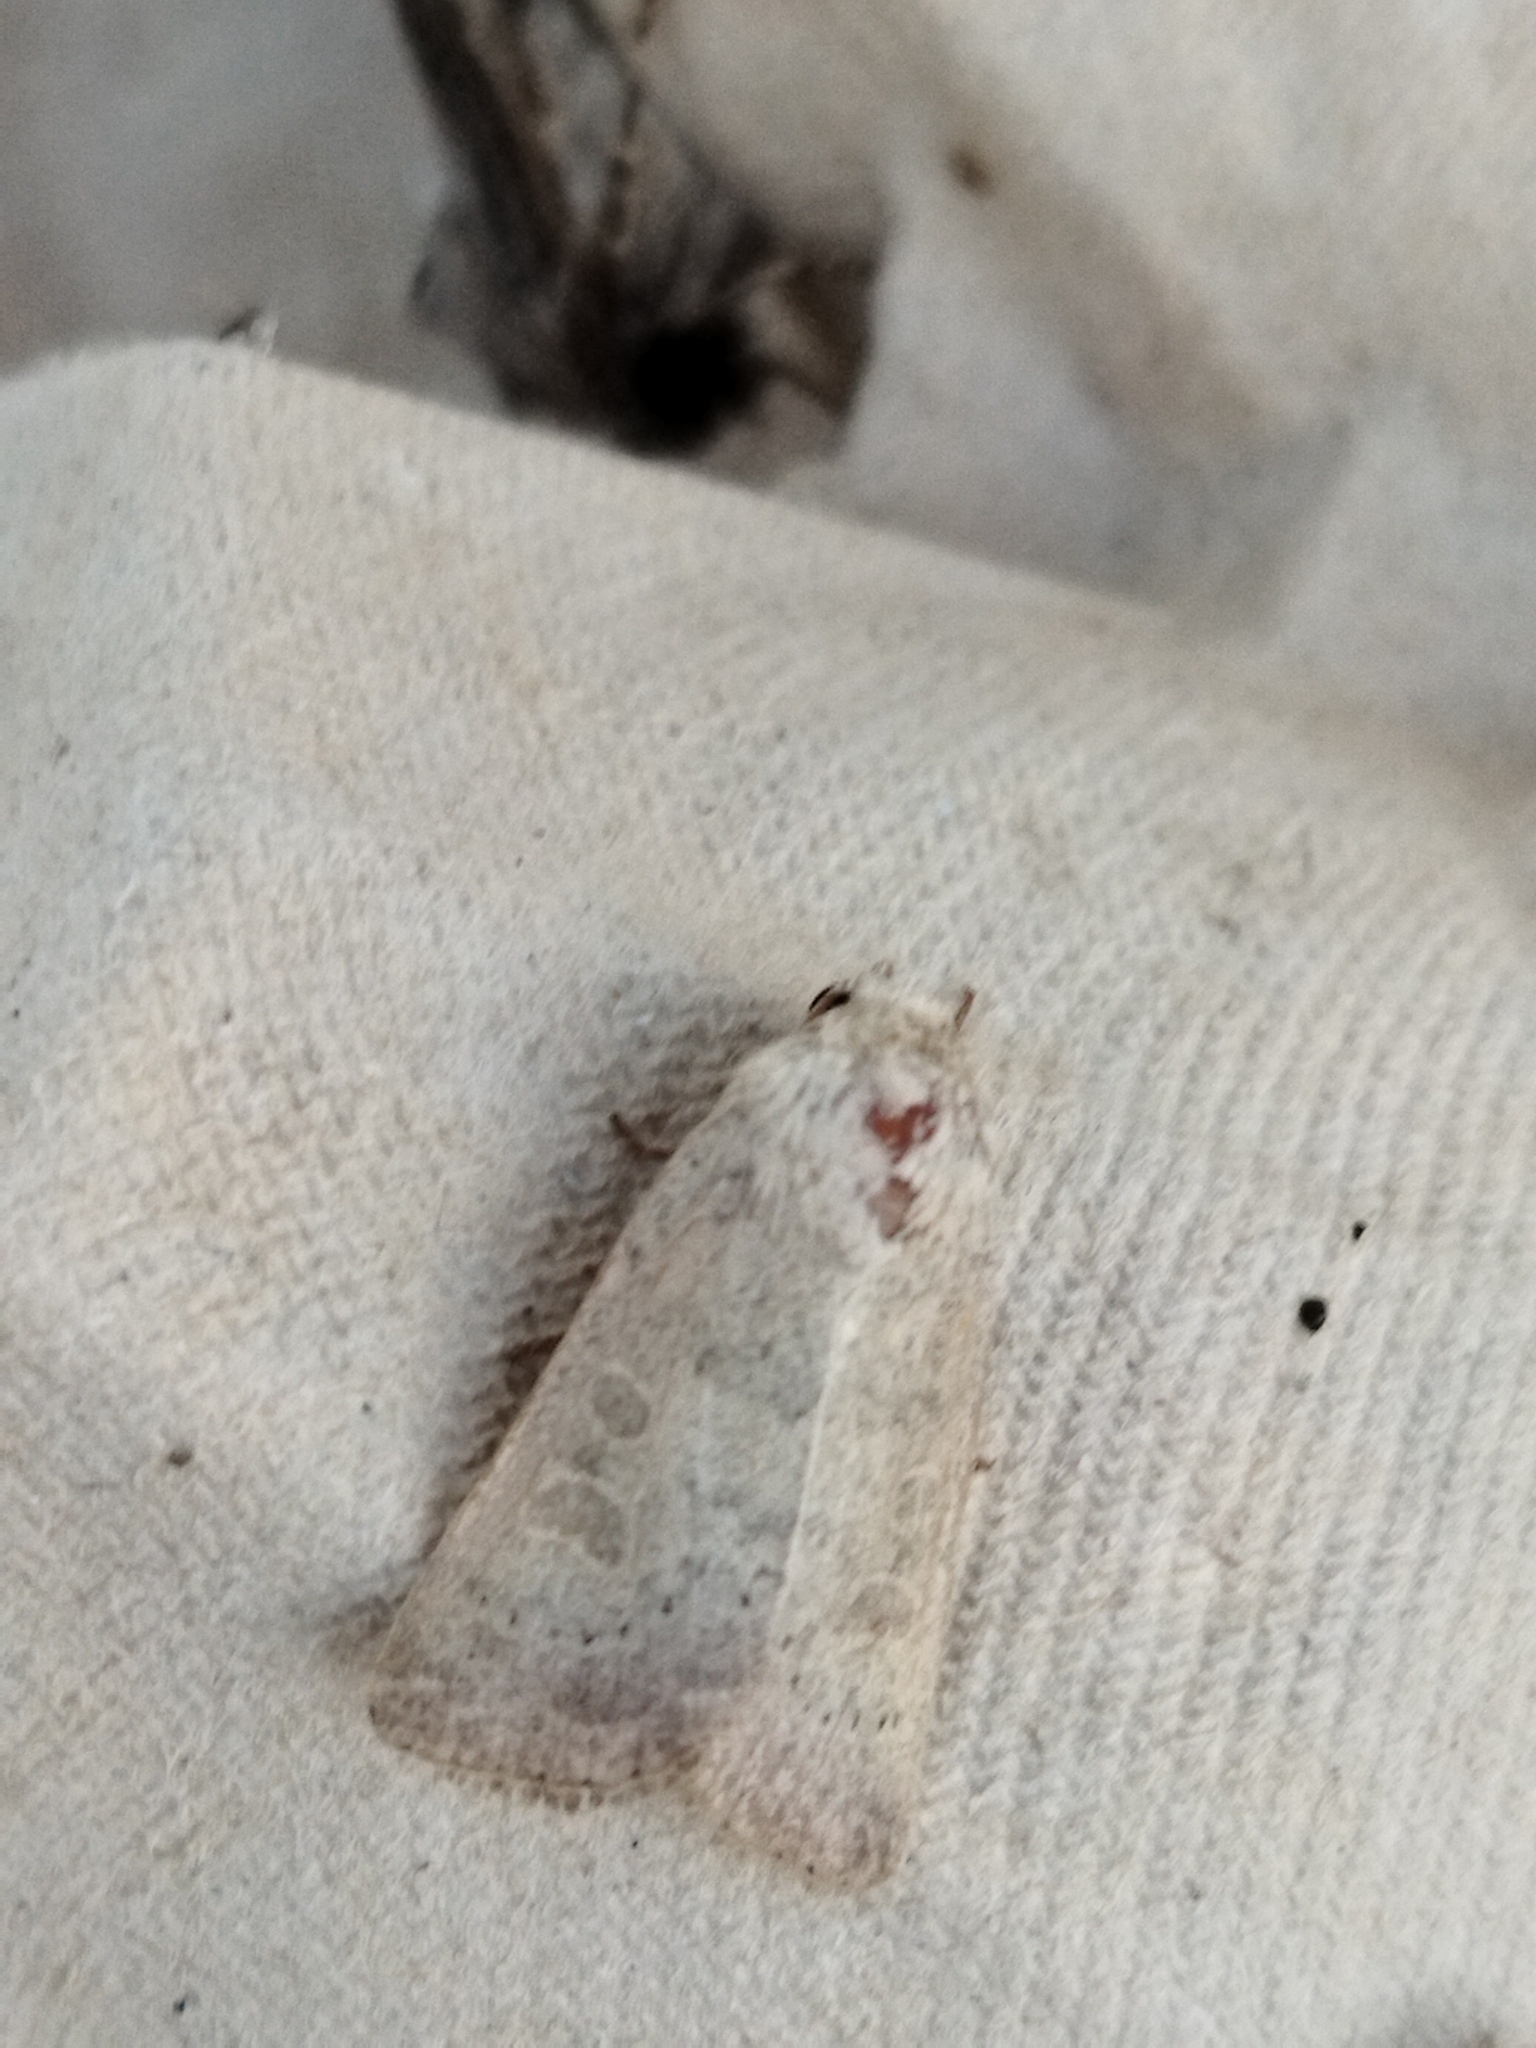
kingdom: Animalia
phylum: Arthropoda
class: Insecta
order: Lepidoptera
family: Noctuidae
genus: Hoplodrina
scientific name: Hoplodrina ambigua
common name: Vine's rustic
